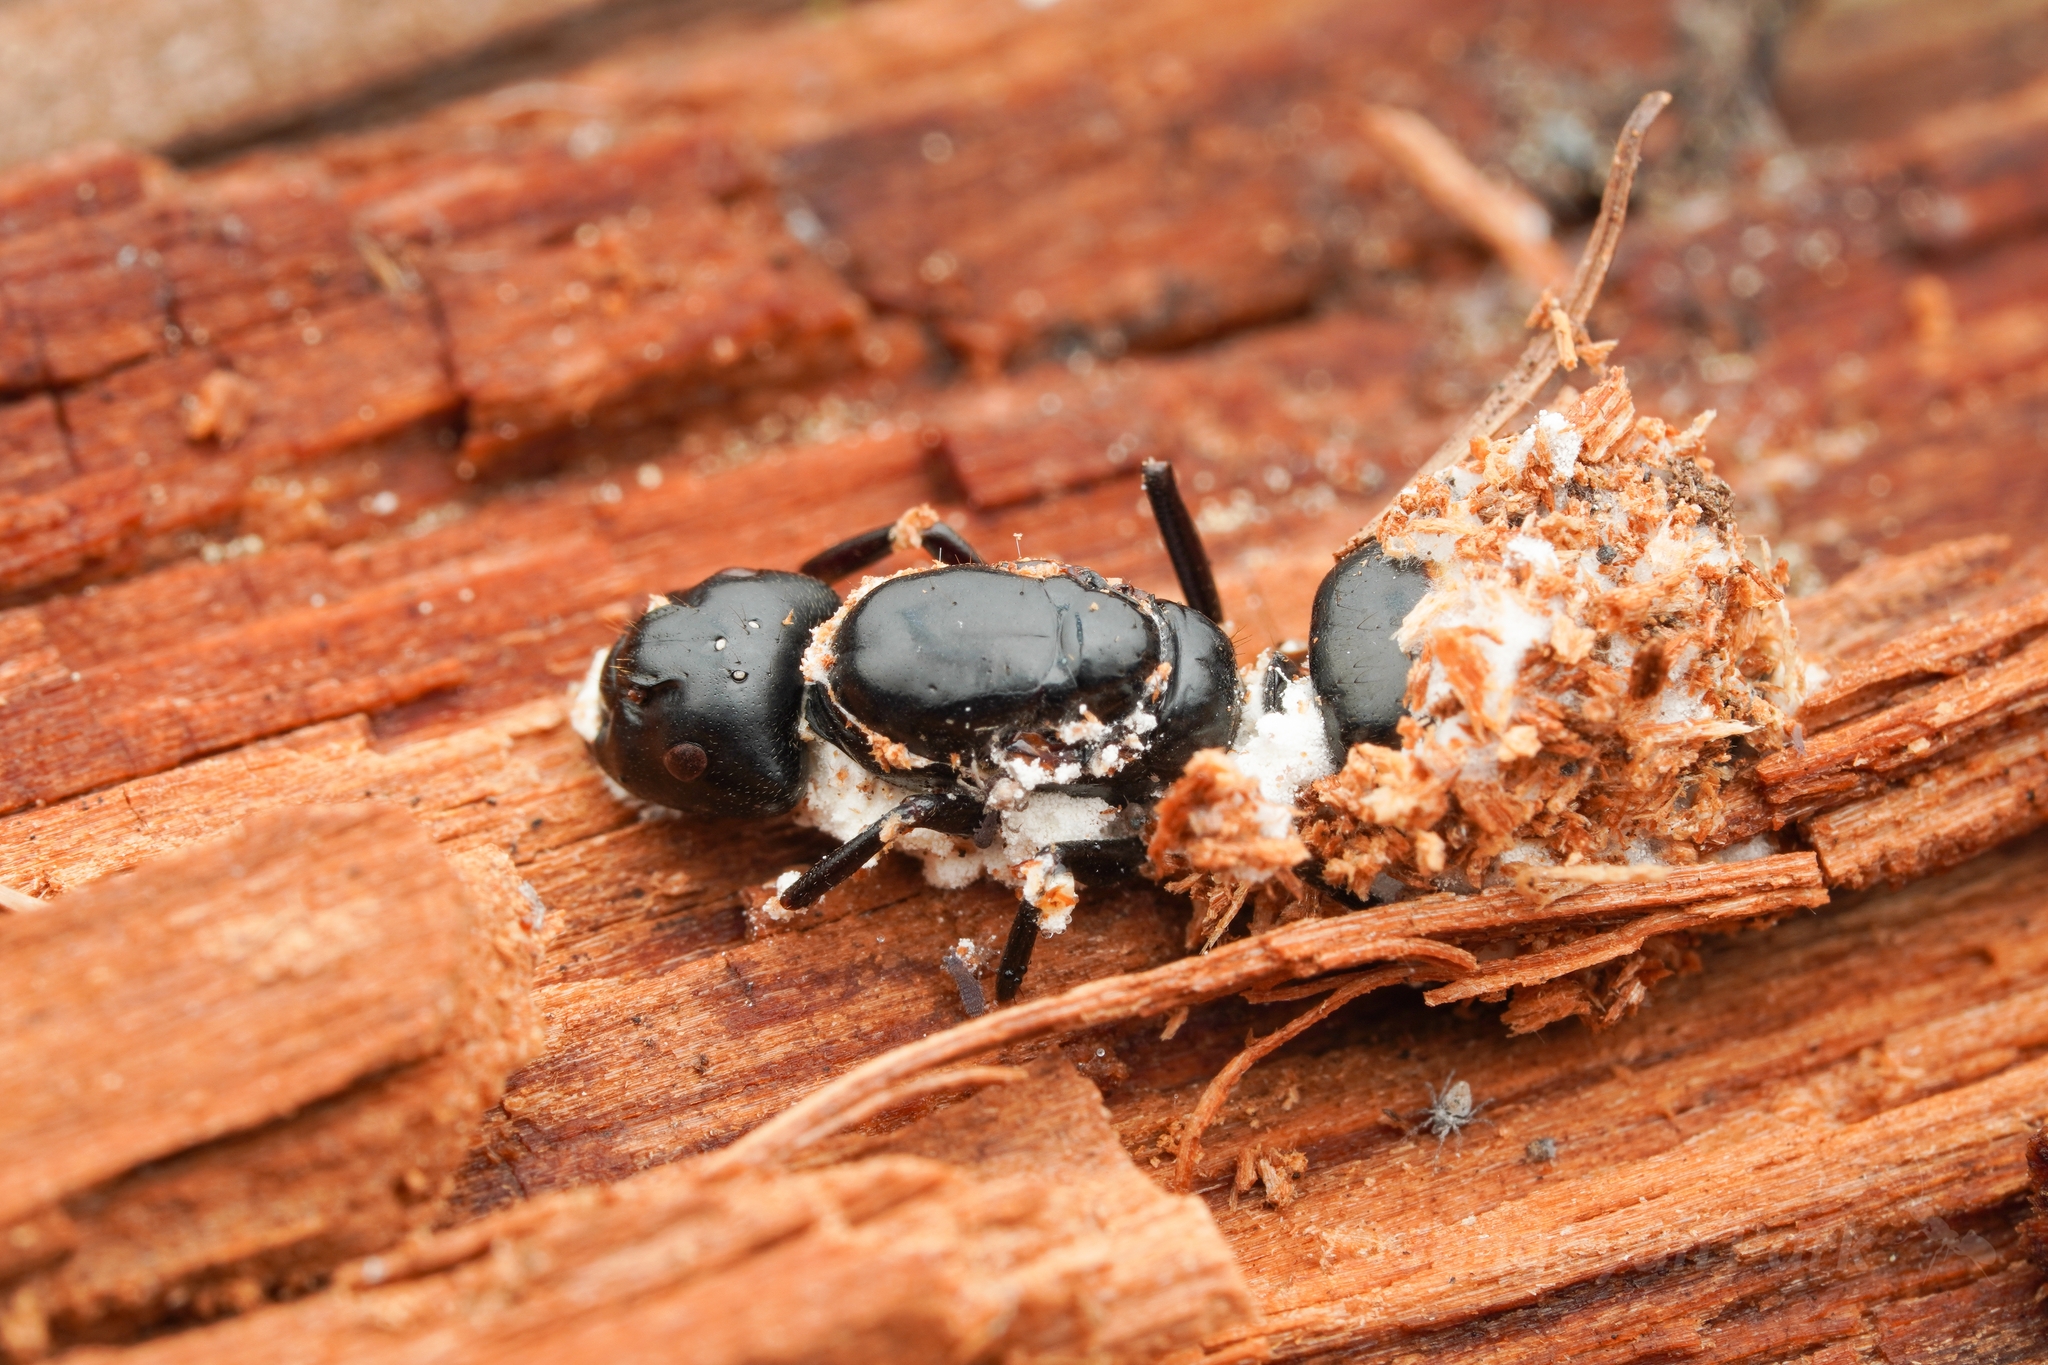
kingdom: Animalia
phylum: Arthropoda
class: Insecta
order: Hymenoptera
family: Formicidae
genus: Camponotus
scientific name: Camponotus herculeanus
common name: Hercules ant
